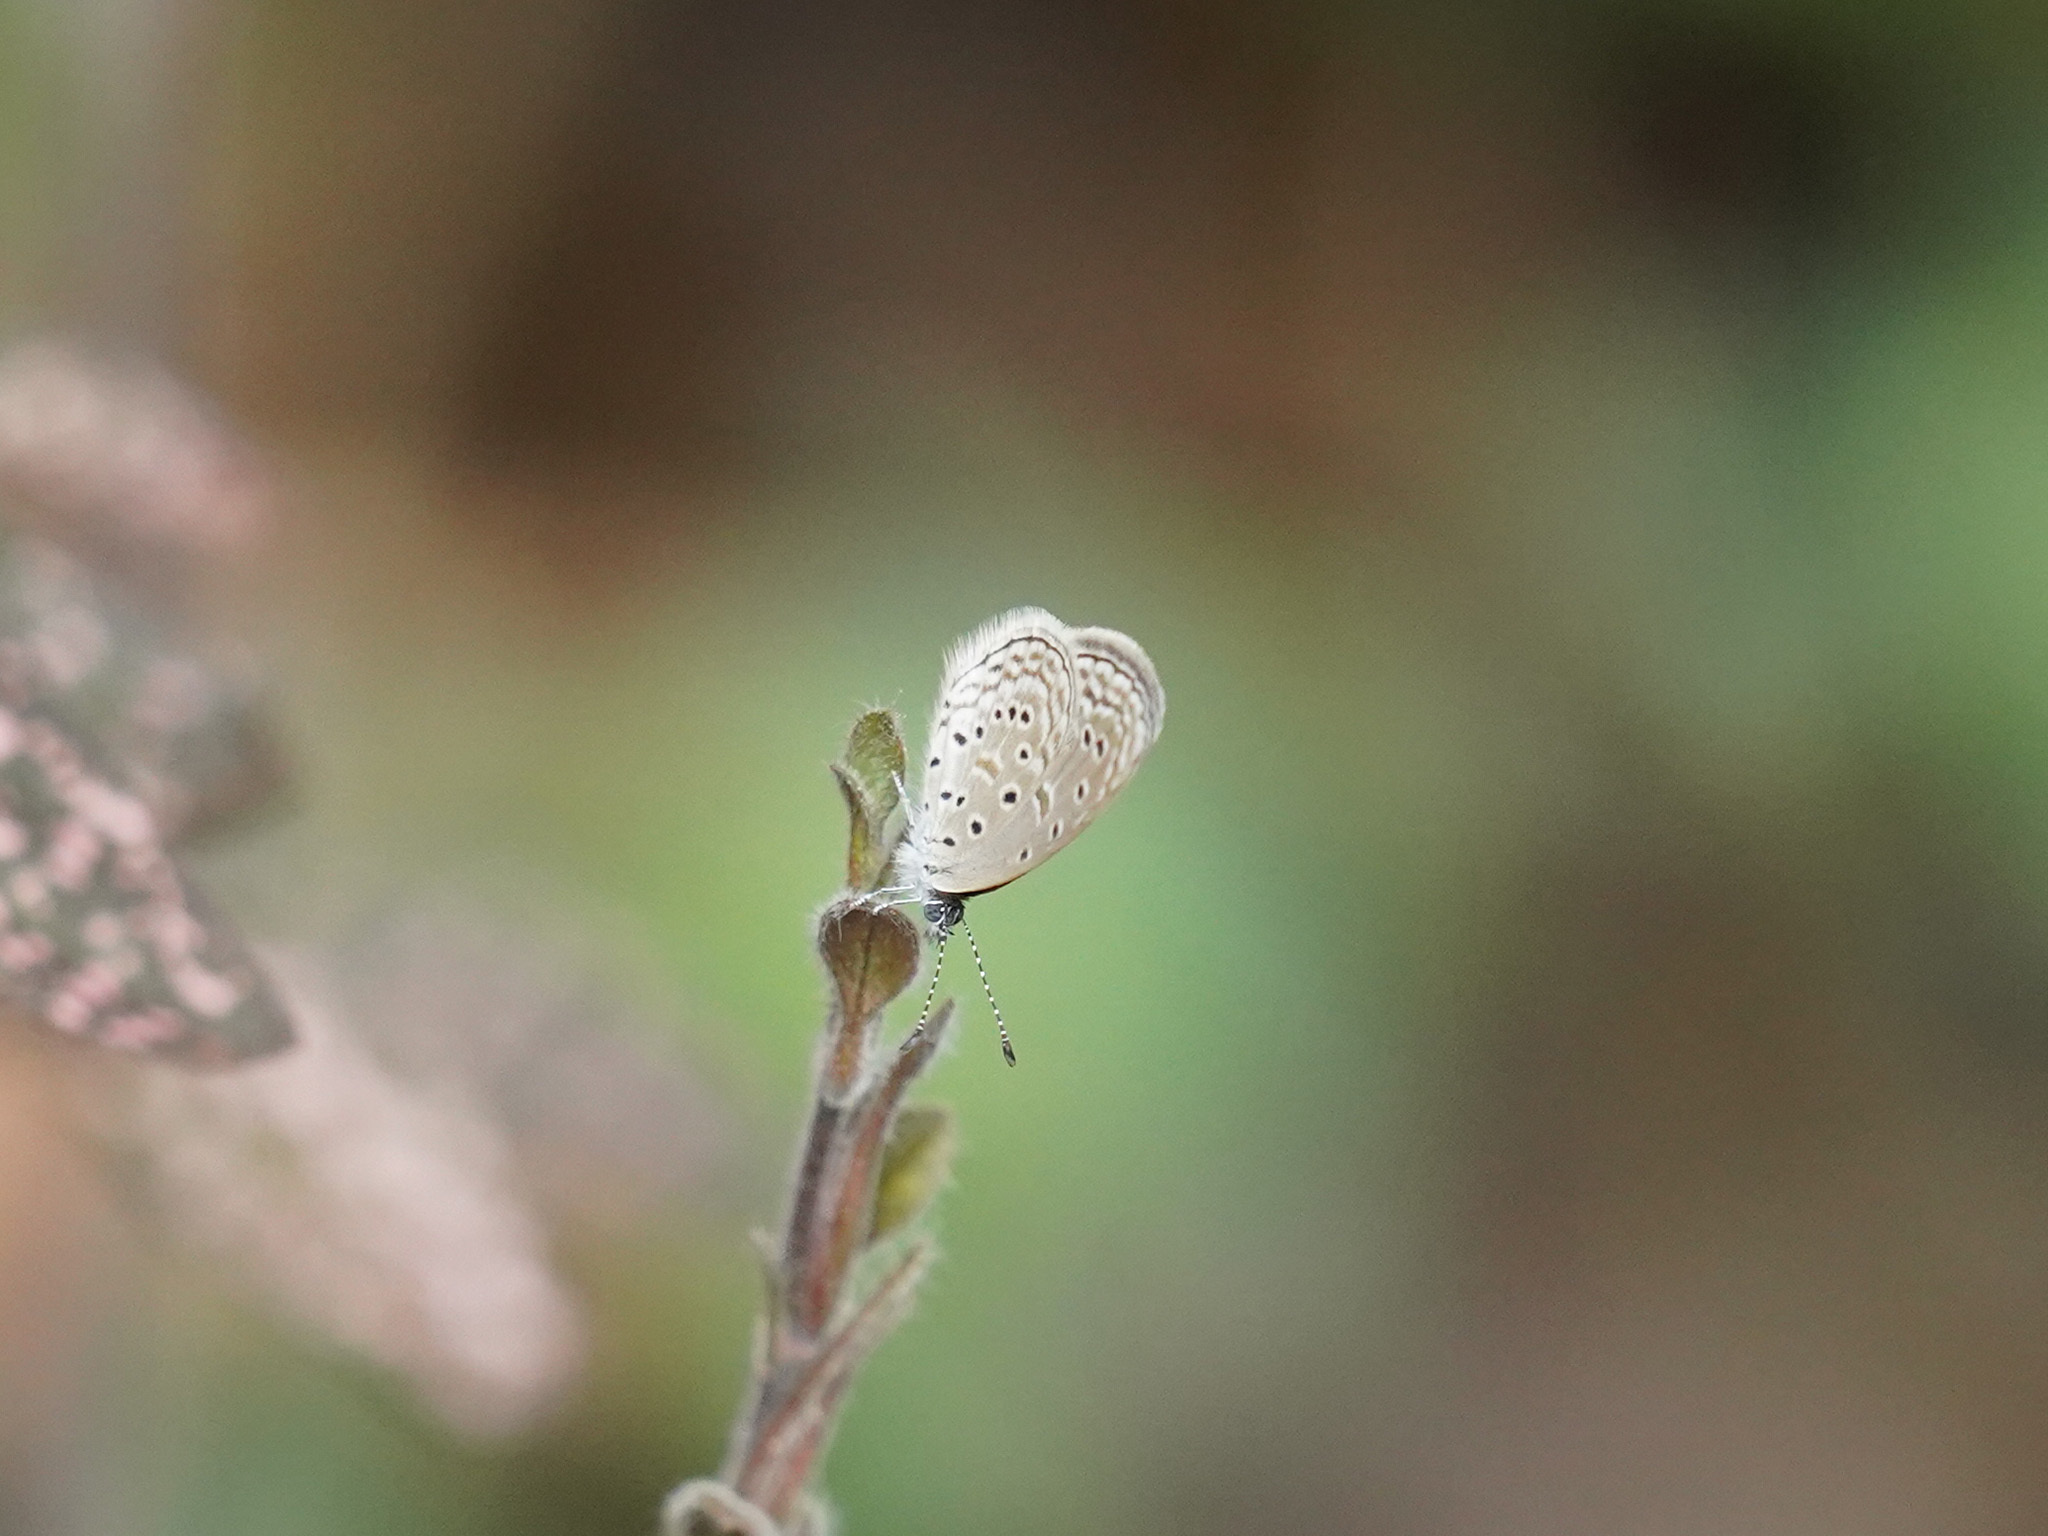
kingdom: Animalia
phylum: Arthropoda
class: Insecta
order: Lepidoptera
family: Lycaenidae
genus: Zizula
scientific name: Zizula hylax
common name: Gaika blue
